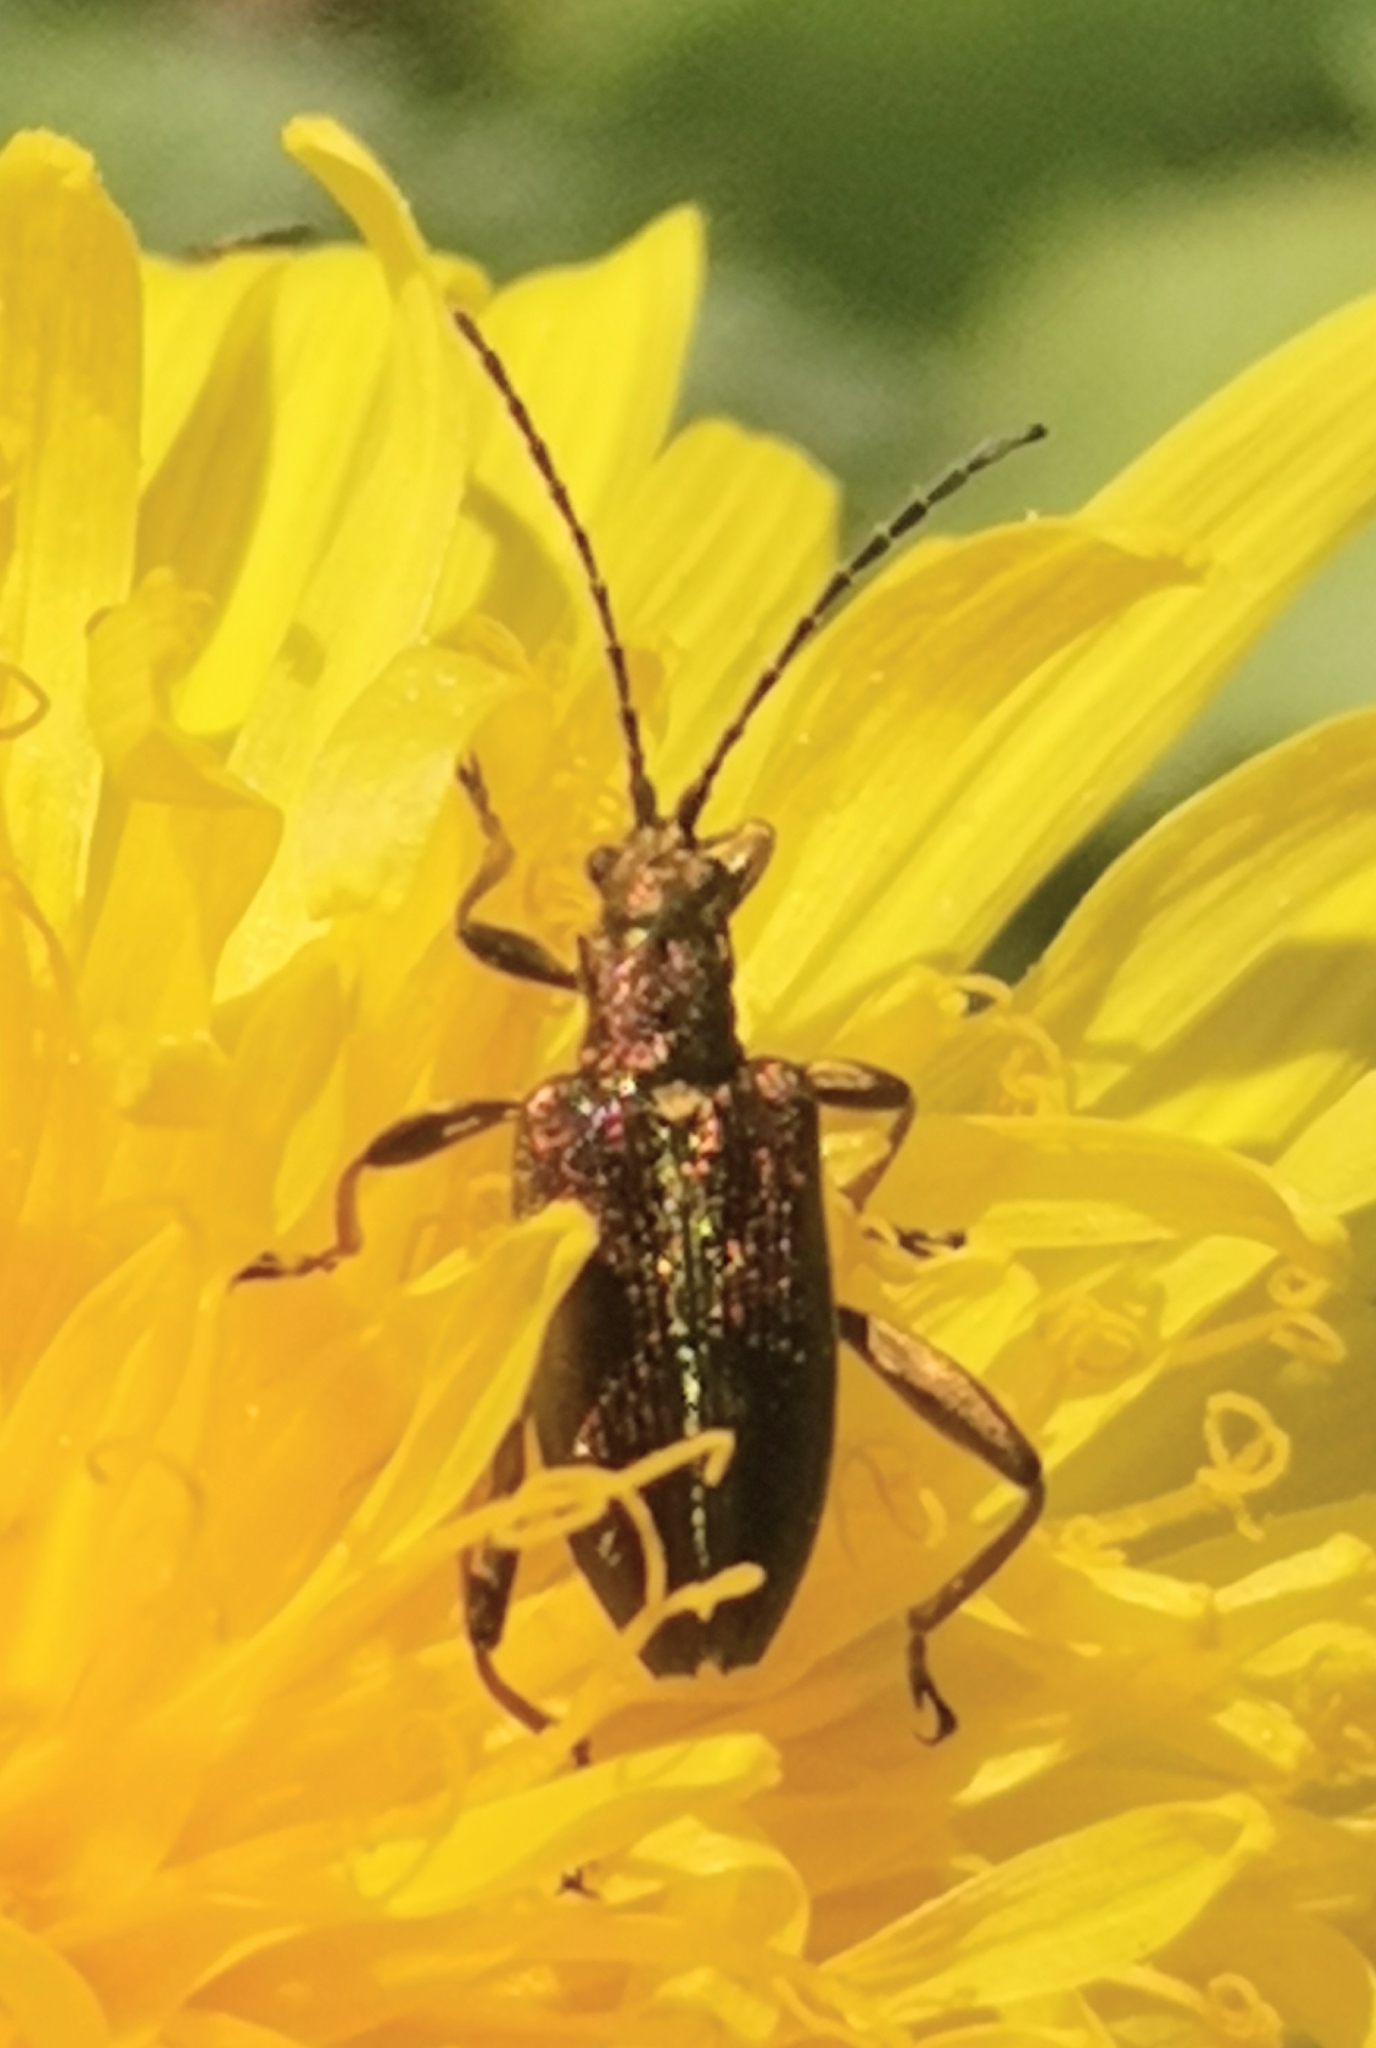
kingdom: Animalia
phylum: Arthropoda
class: Insecta
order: Coleoptera
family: Chrysomelidae
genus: Donacia
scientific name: Donacia aquatica
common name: Zircon reed beetle
